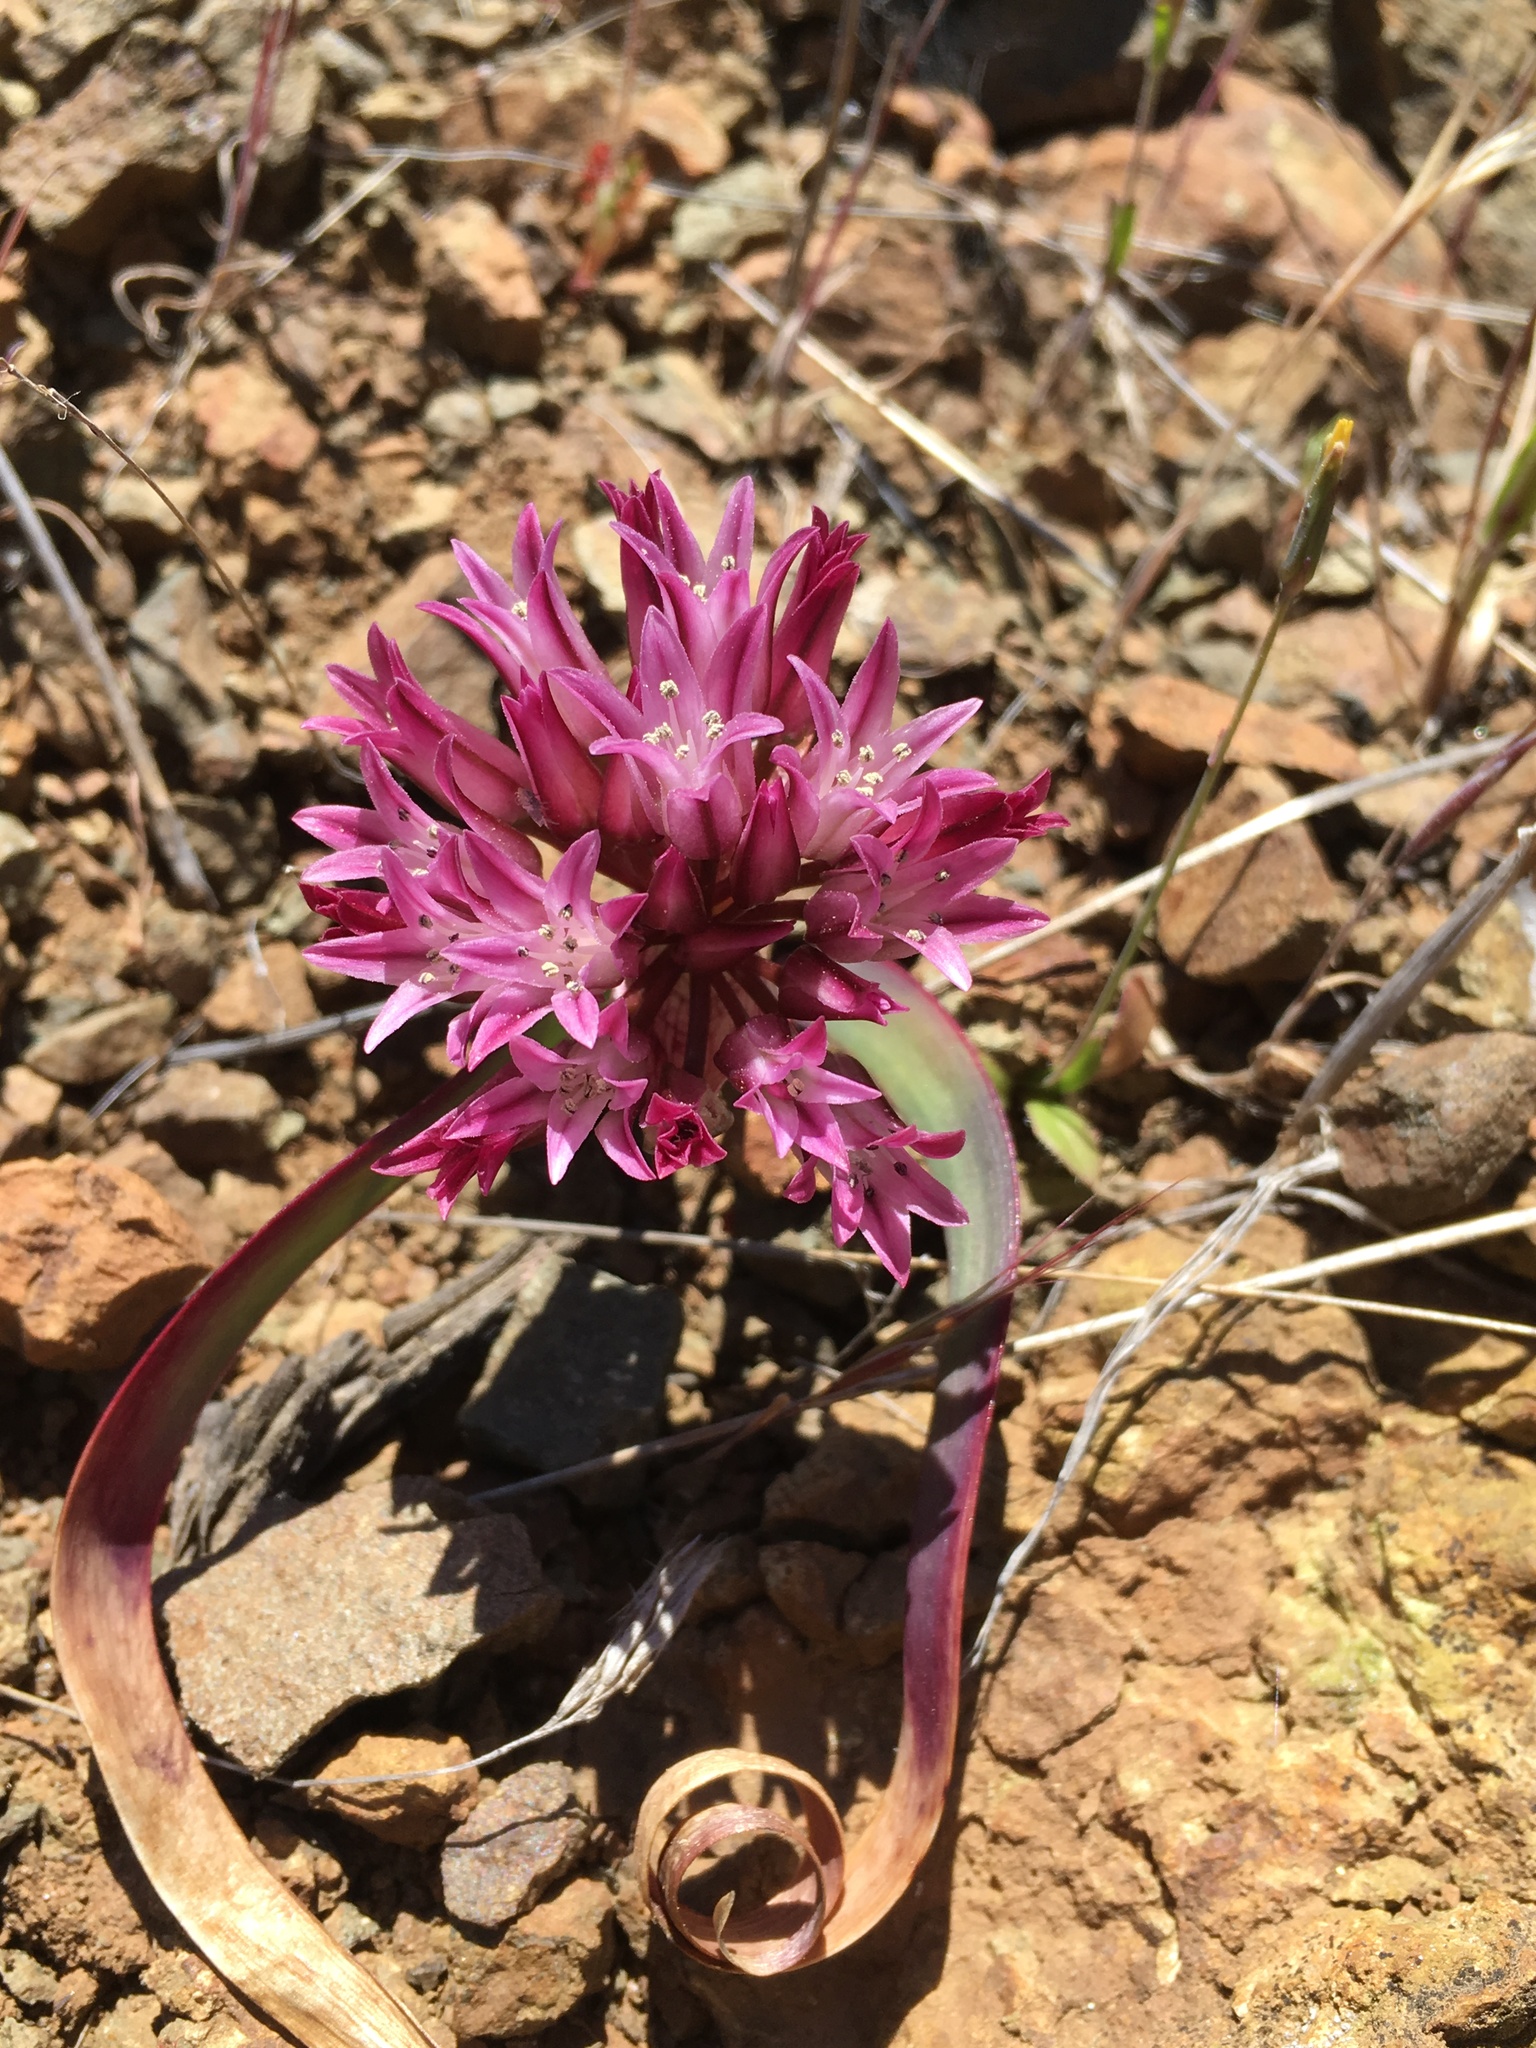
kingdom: Plantae
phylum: Tracheophyta
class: Liliopsida
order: Asparagales
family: Amaryllidaceae
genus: Allium
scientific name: Allium falcifolium
